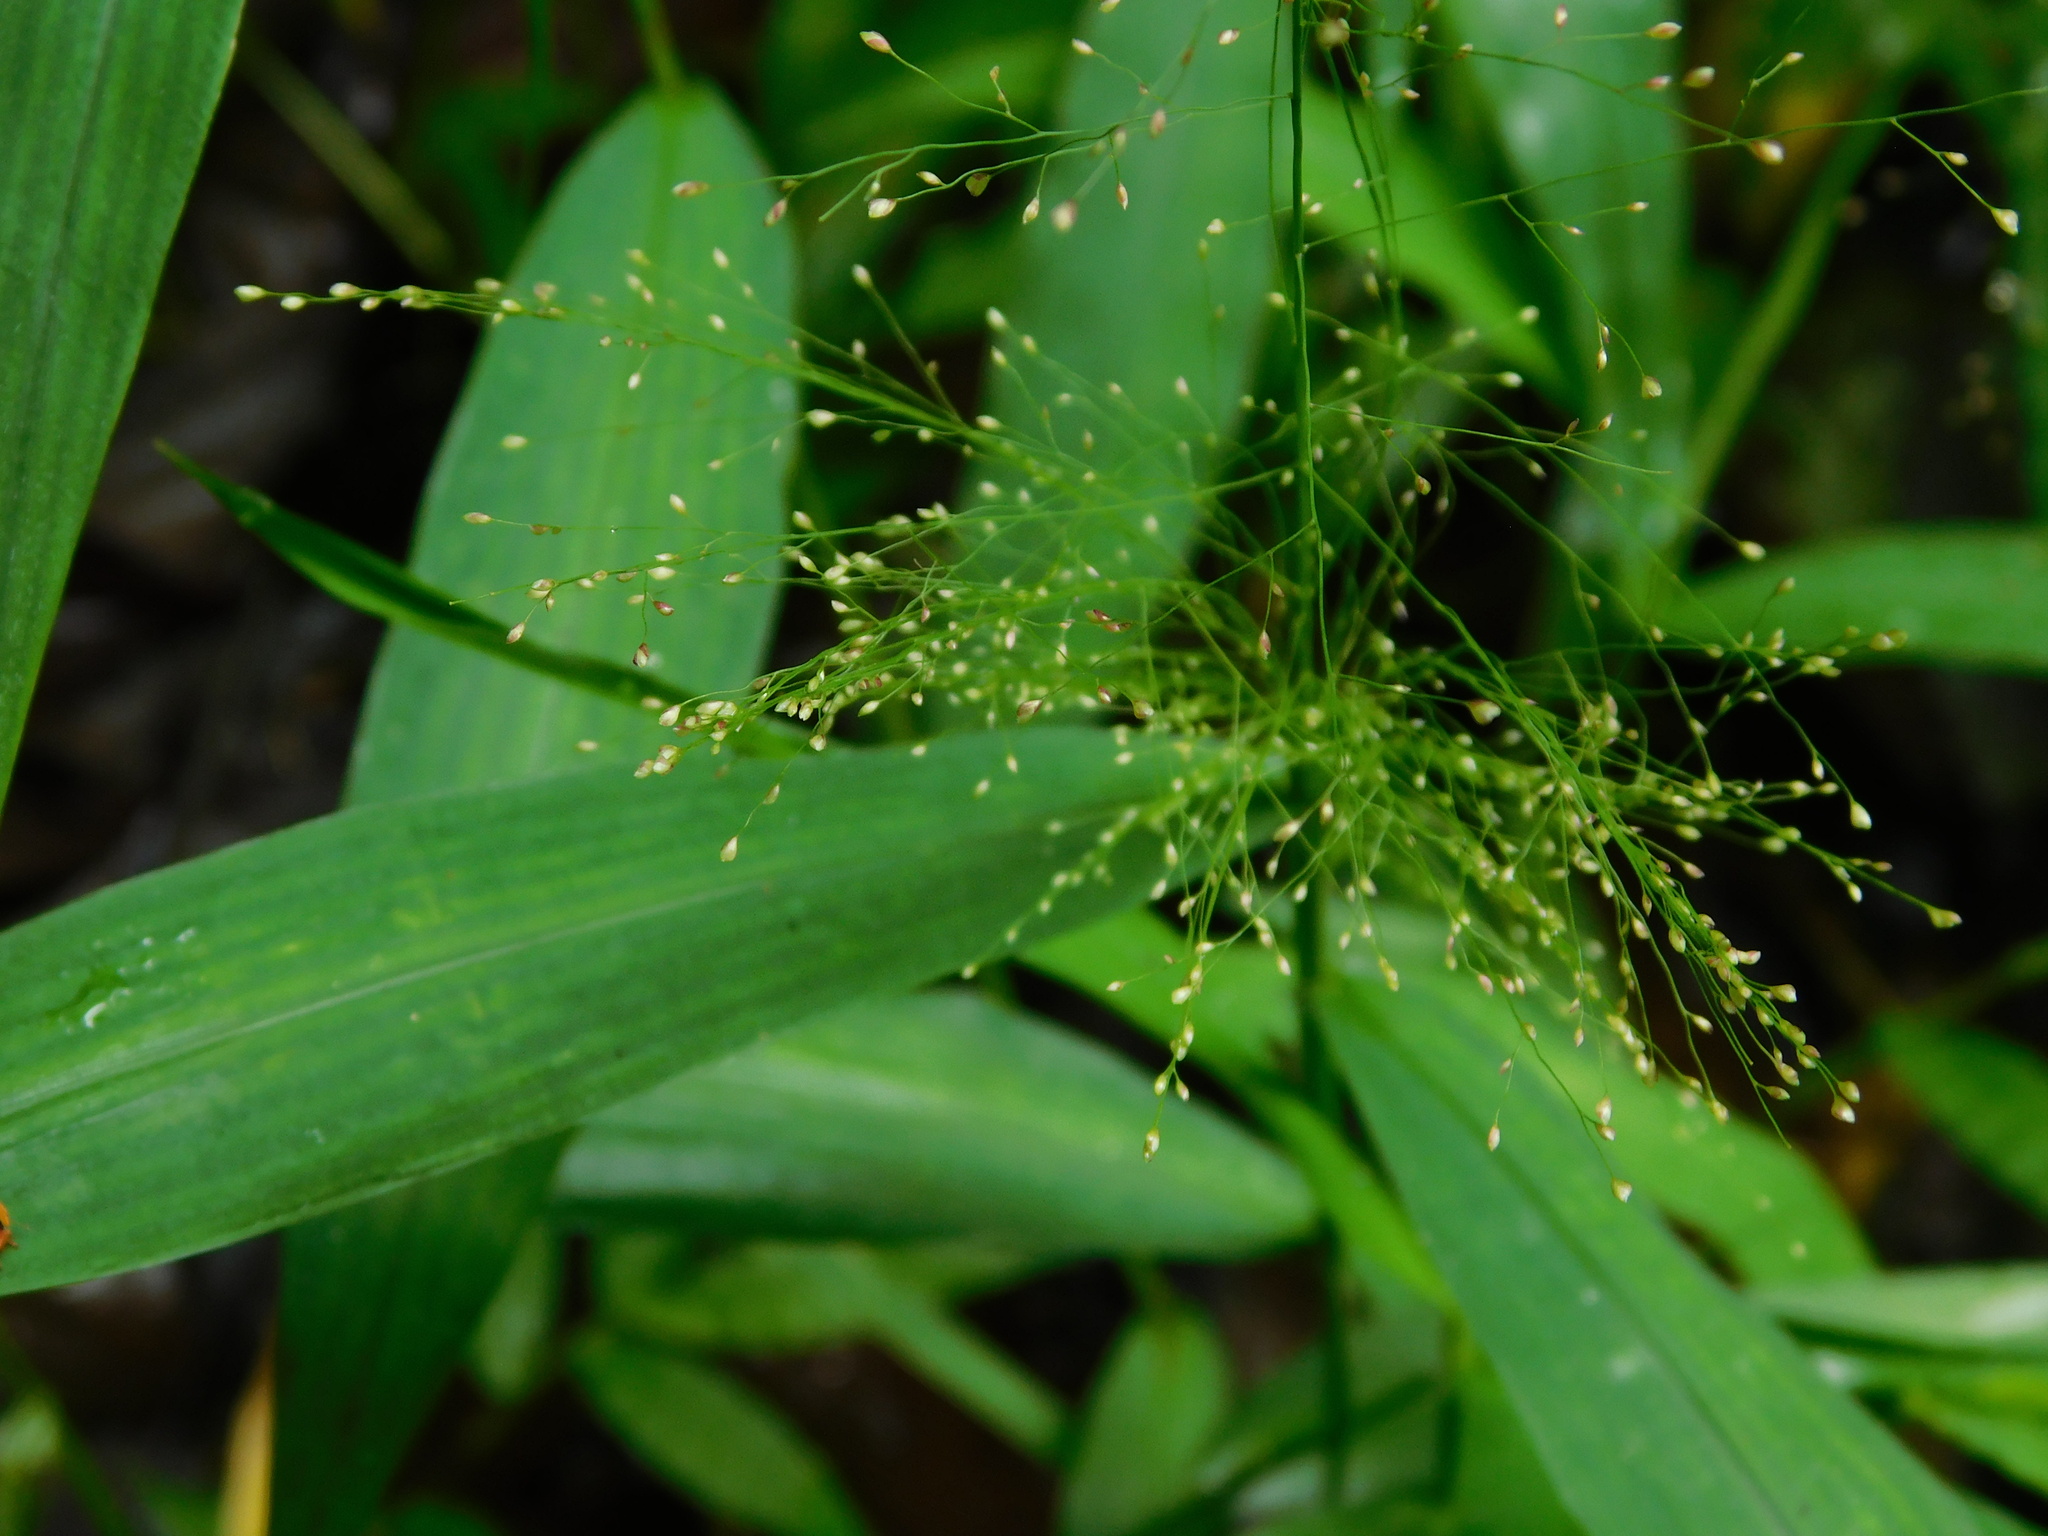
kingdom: Plantae
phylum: Tracheophyta
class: Liliopsida
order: Poales
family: Poaceae
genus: Cyrtococcum
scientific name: Cyrtococcum patens
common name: Broad-leaved bowgrass
